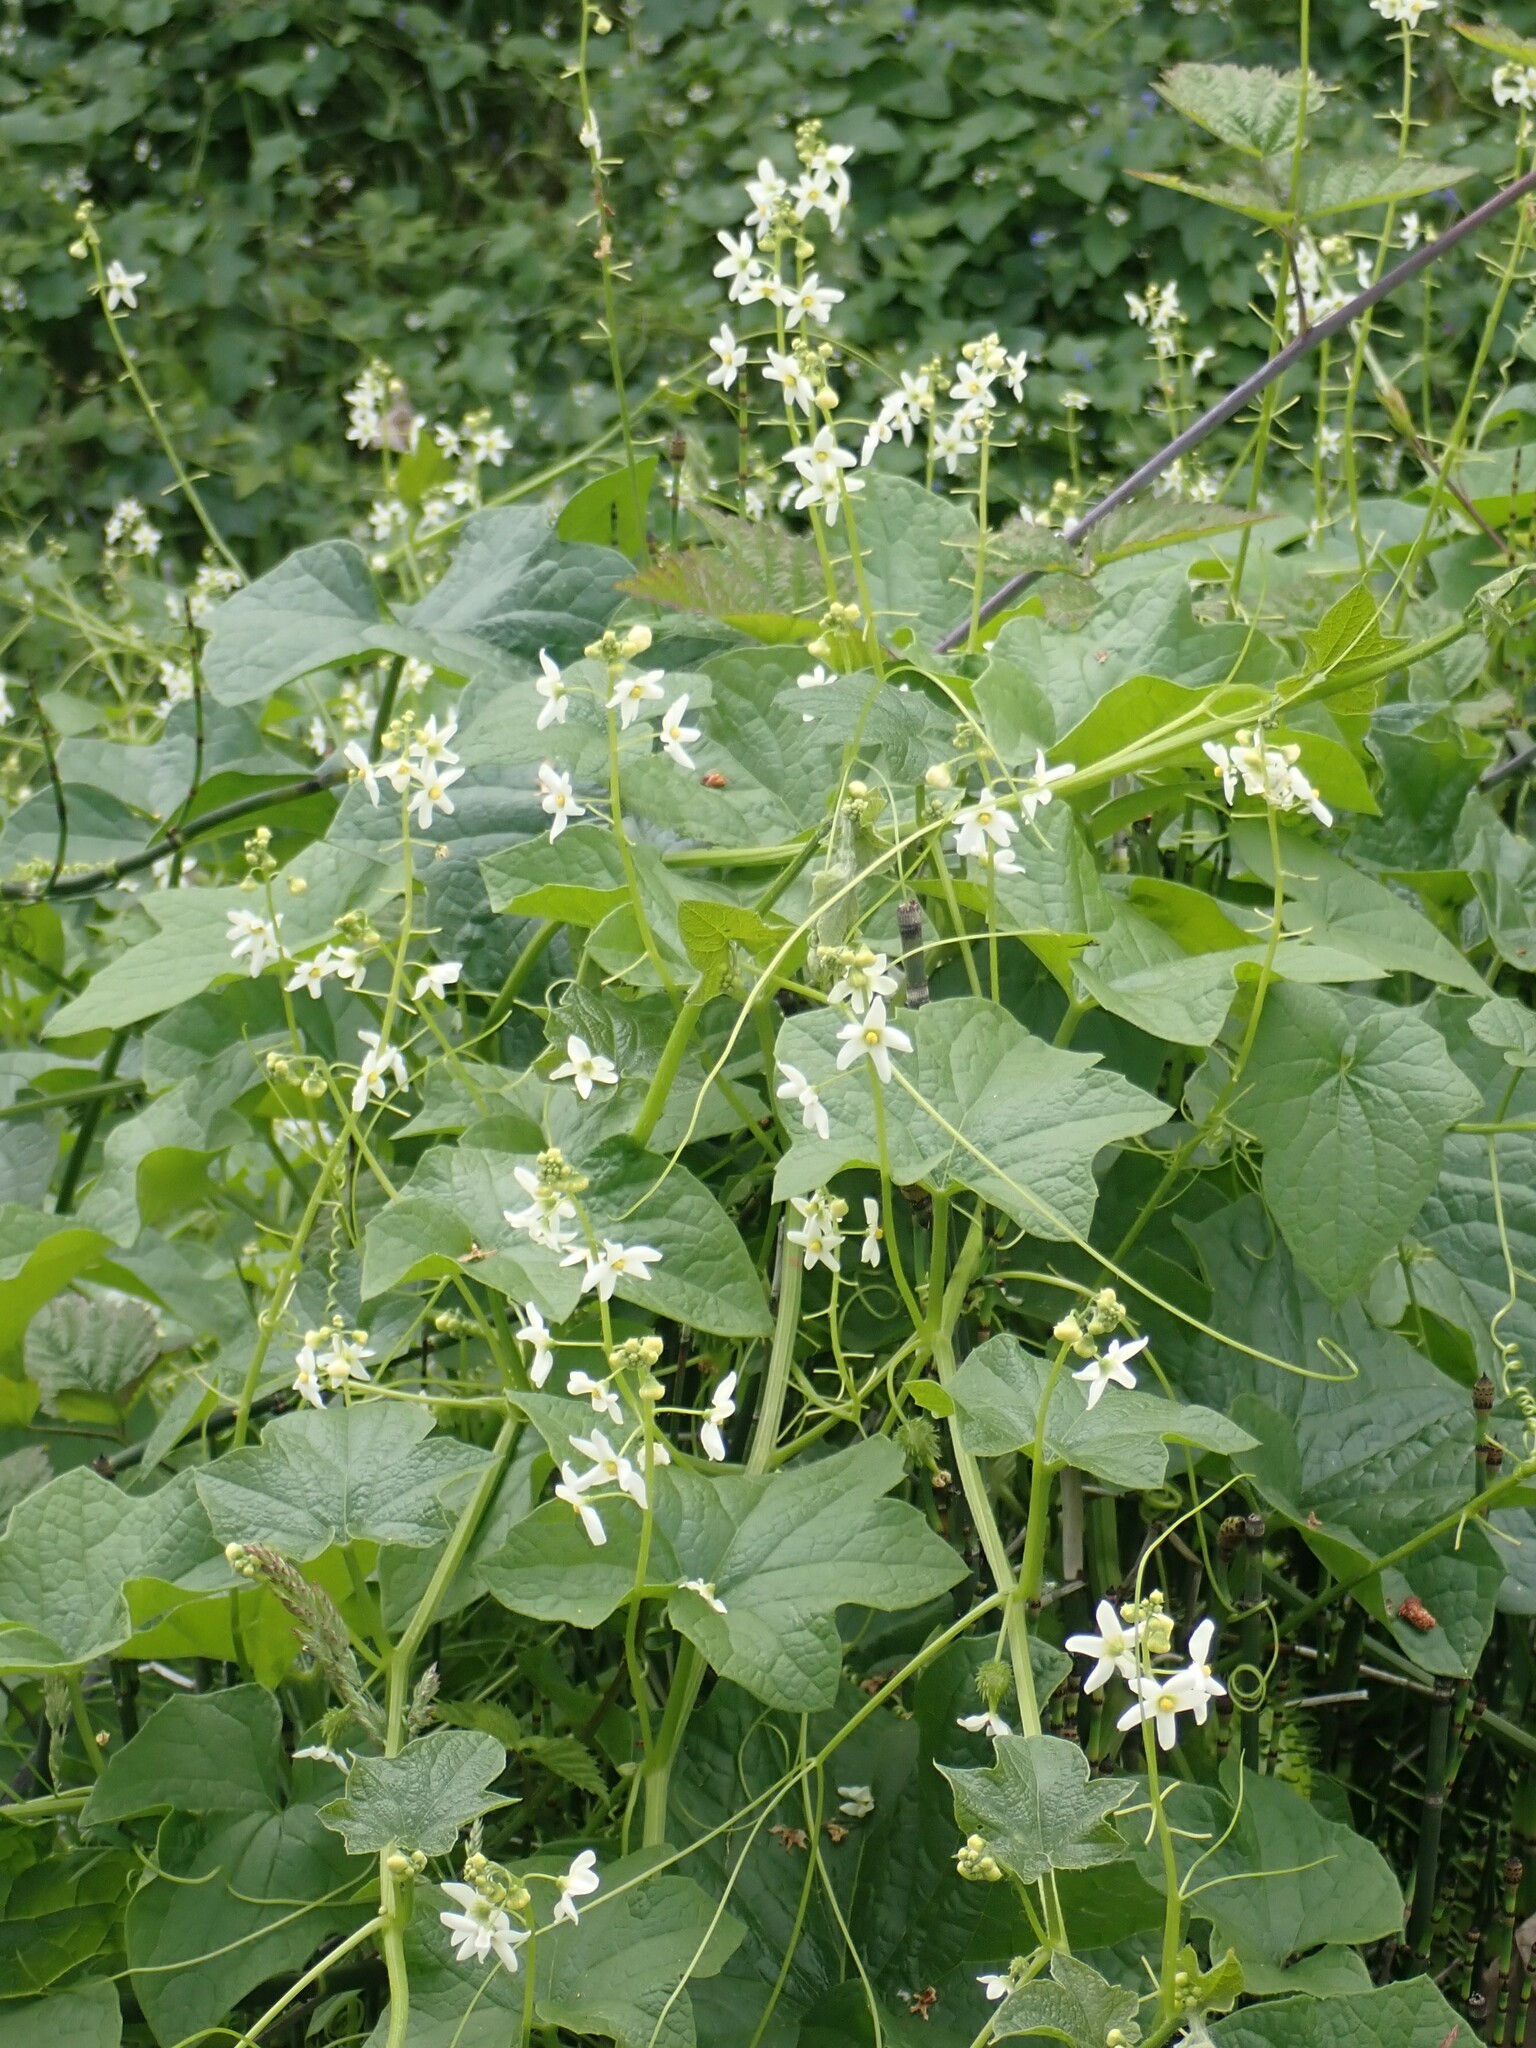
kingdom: Plantae
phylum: Tracheophyta
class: Magnoliopsida
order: Cucurbitales
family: Cucurbitaceae
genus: Marah
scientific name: Marah oregana
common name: Coastal manroot
